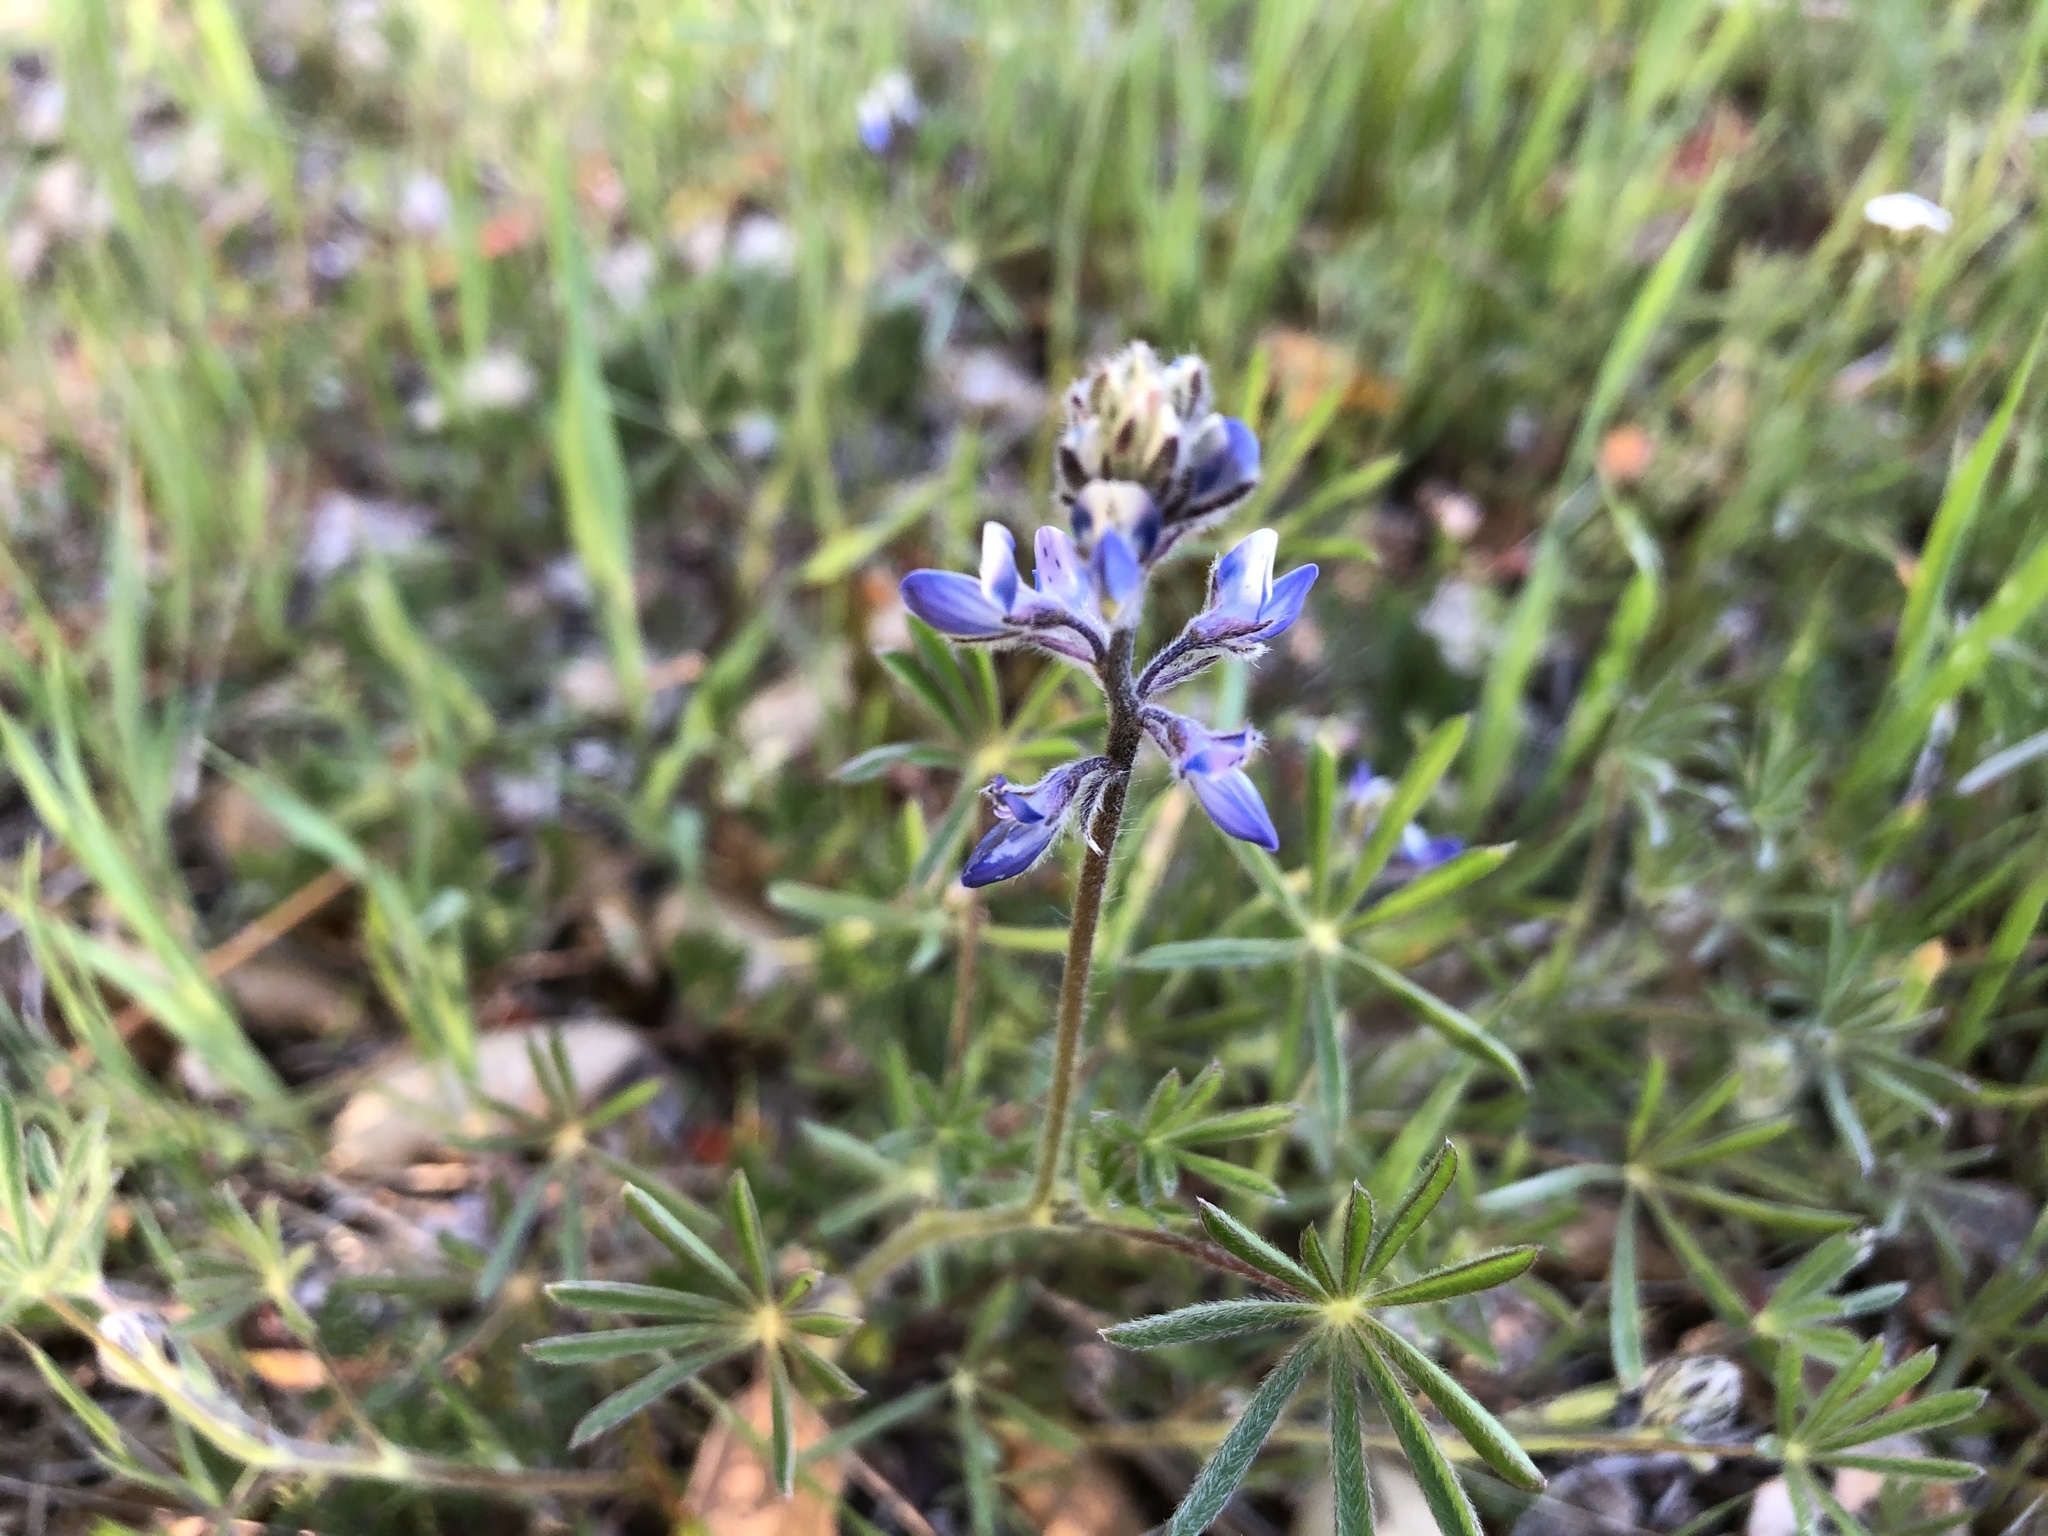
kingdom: Plantae
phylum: Tracheophyta
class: Magnoliopsida
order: Fabales
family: Fabaceae
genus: Lupinus
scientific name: Lupinus bicolor
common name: Miniature lupine
